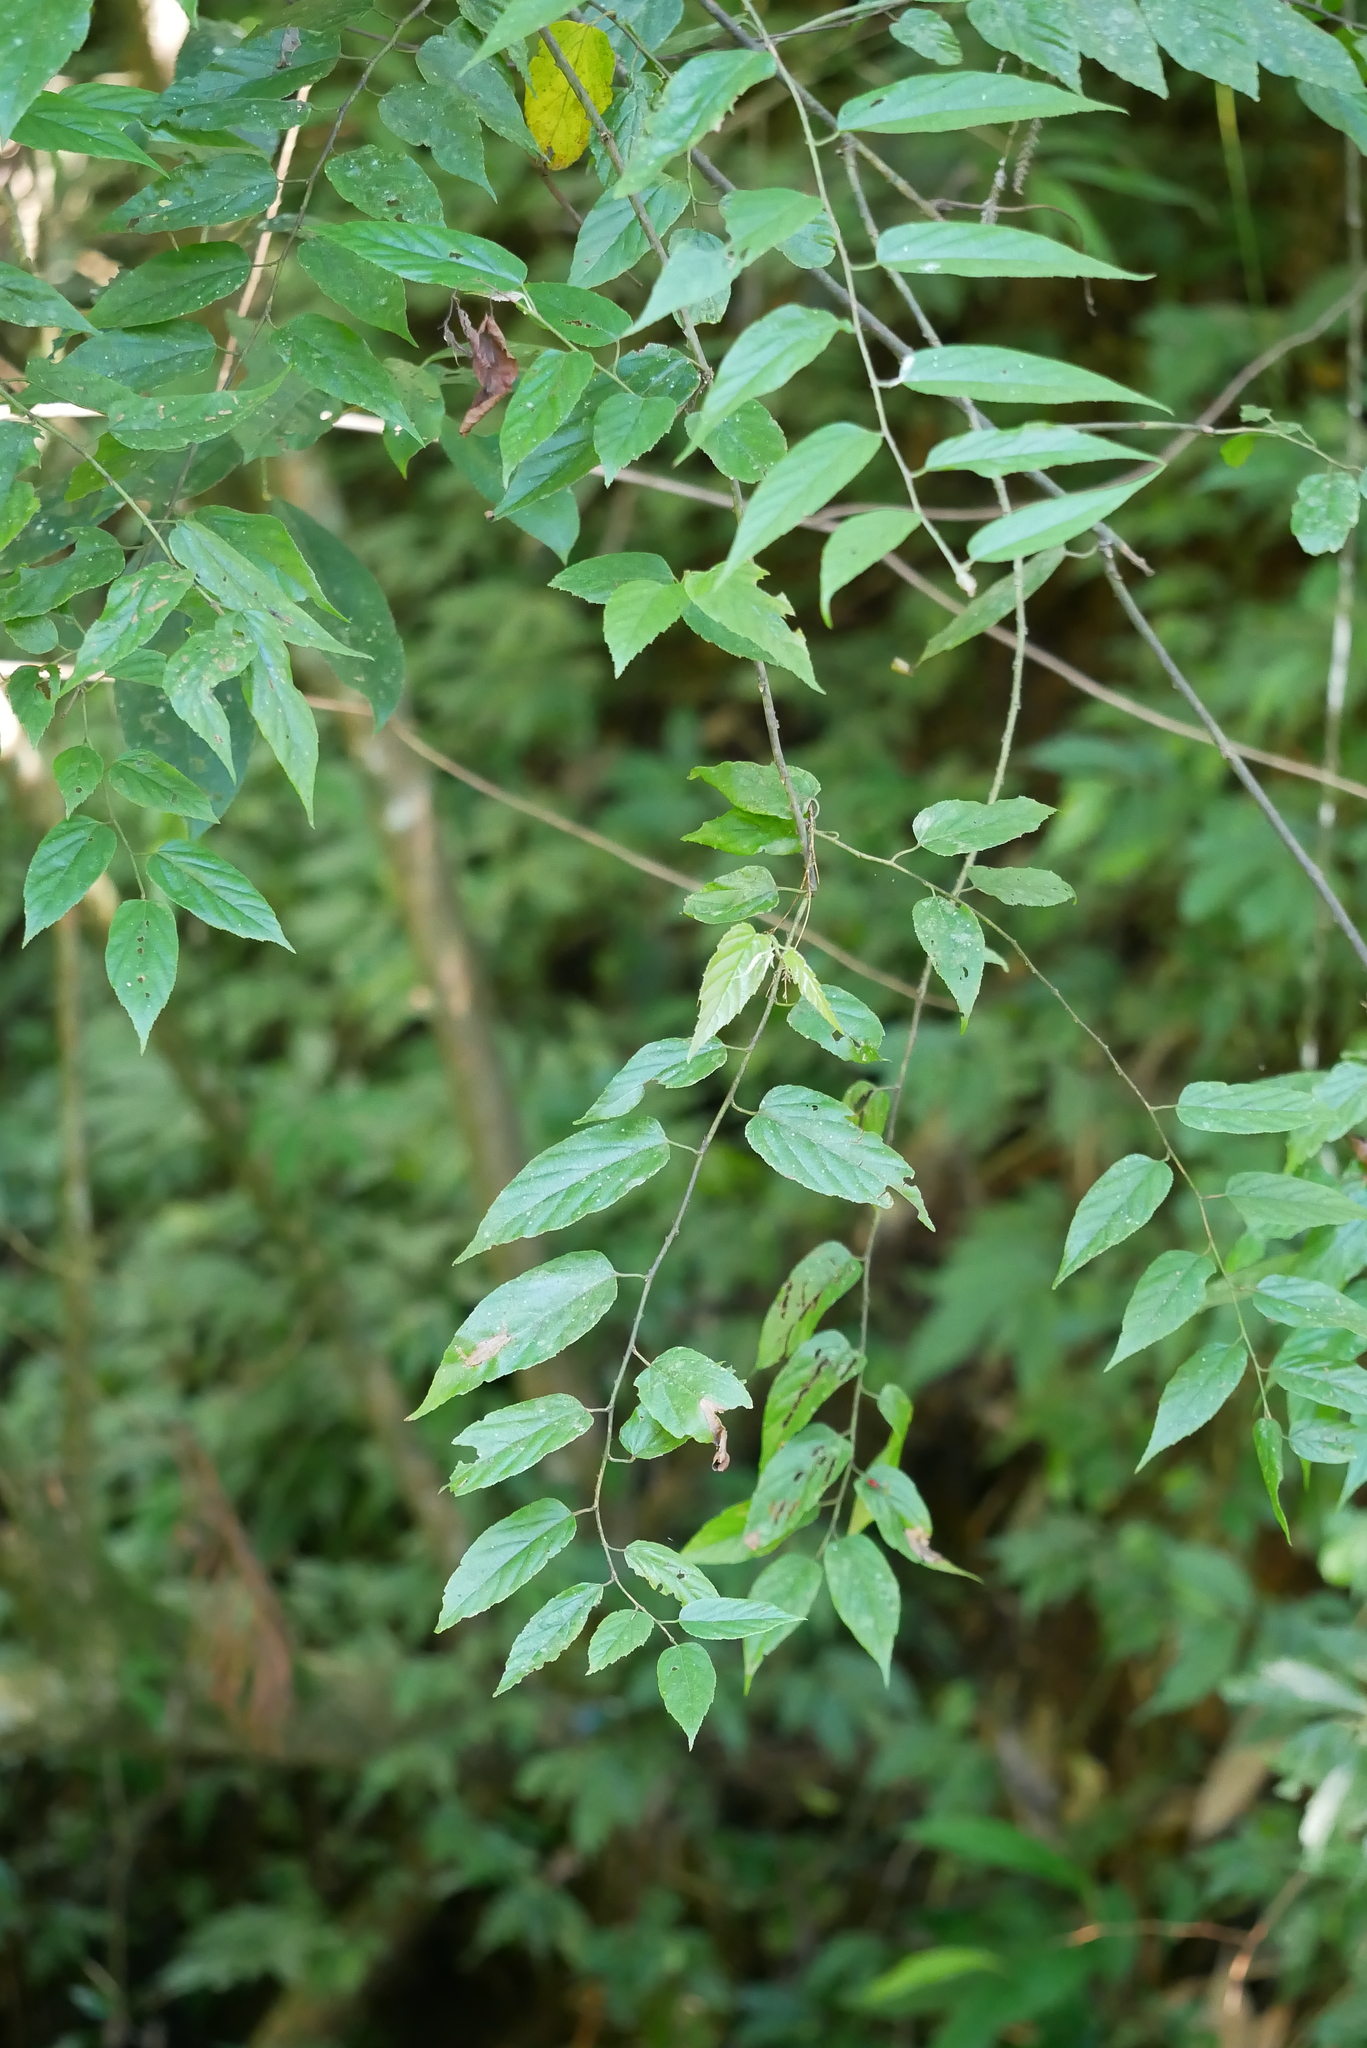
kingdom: Plantae
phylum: Tracheophyta
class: Magnoliopsida
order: Rosales
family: Rosaceae
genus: Rubus
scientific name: Rubus swinhoei
